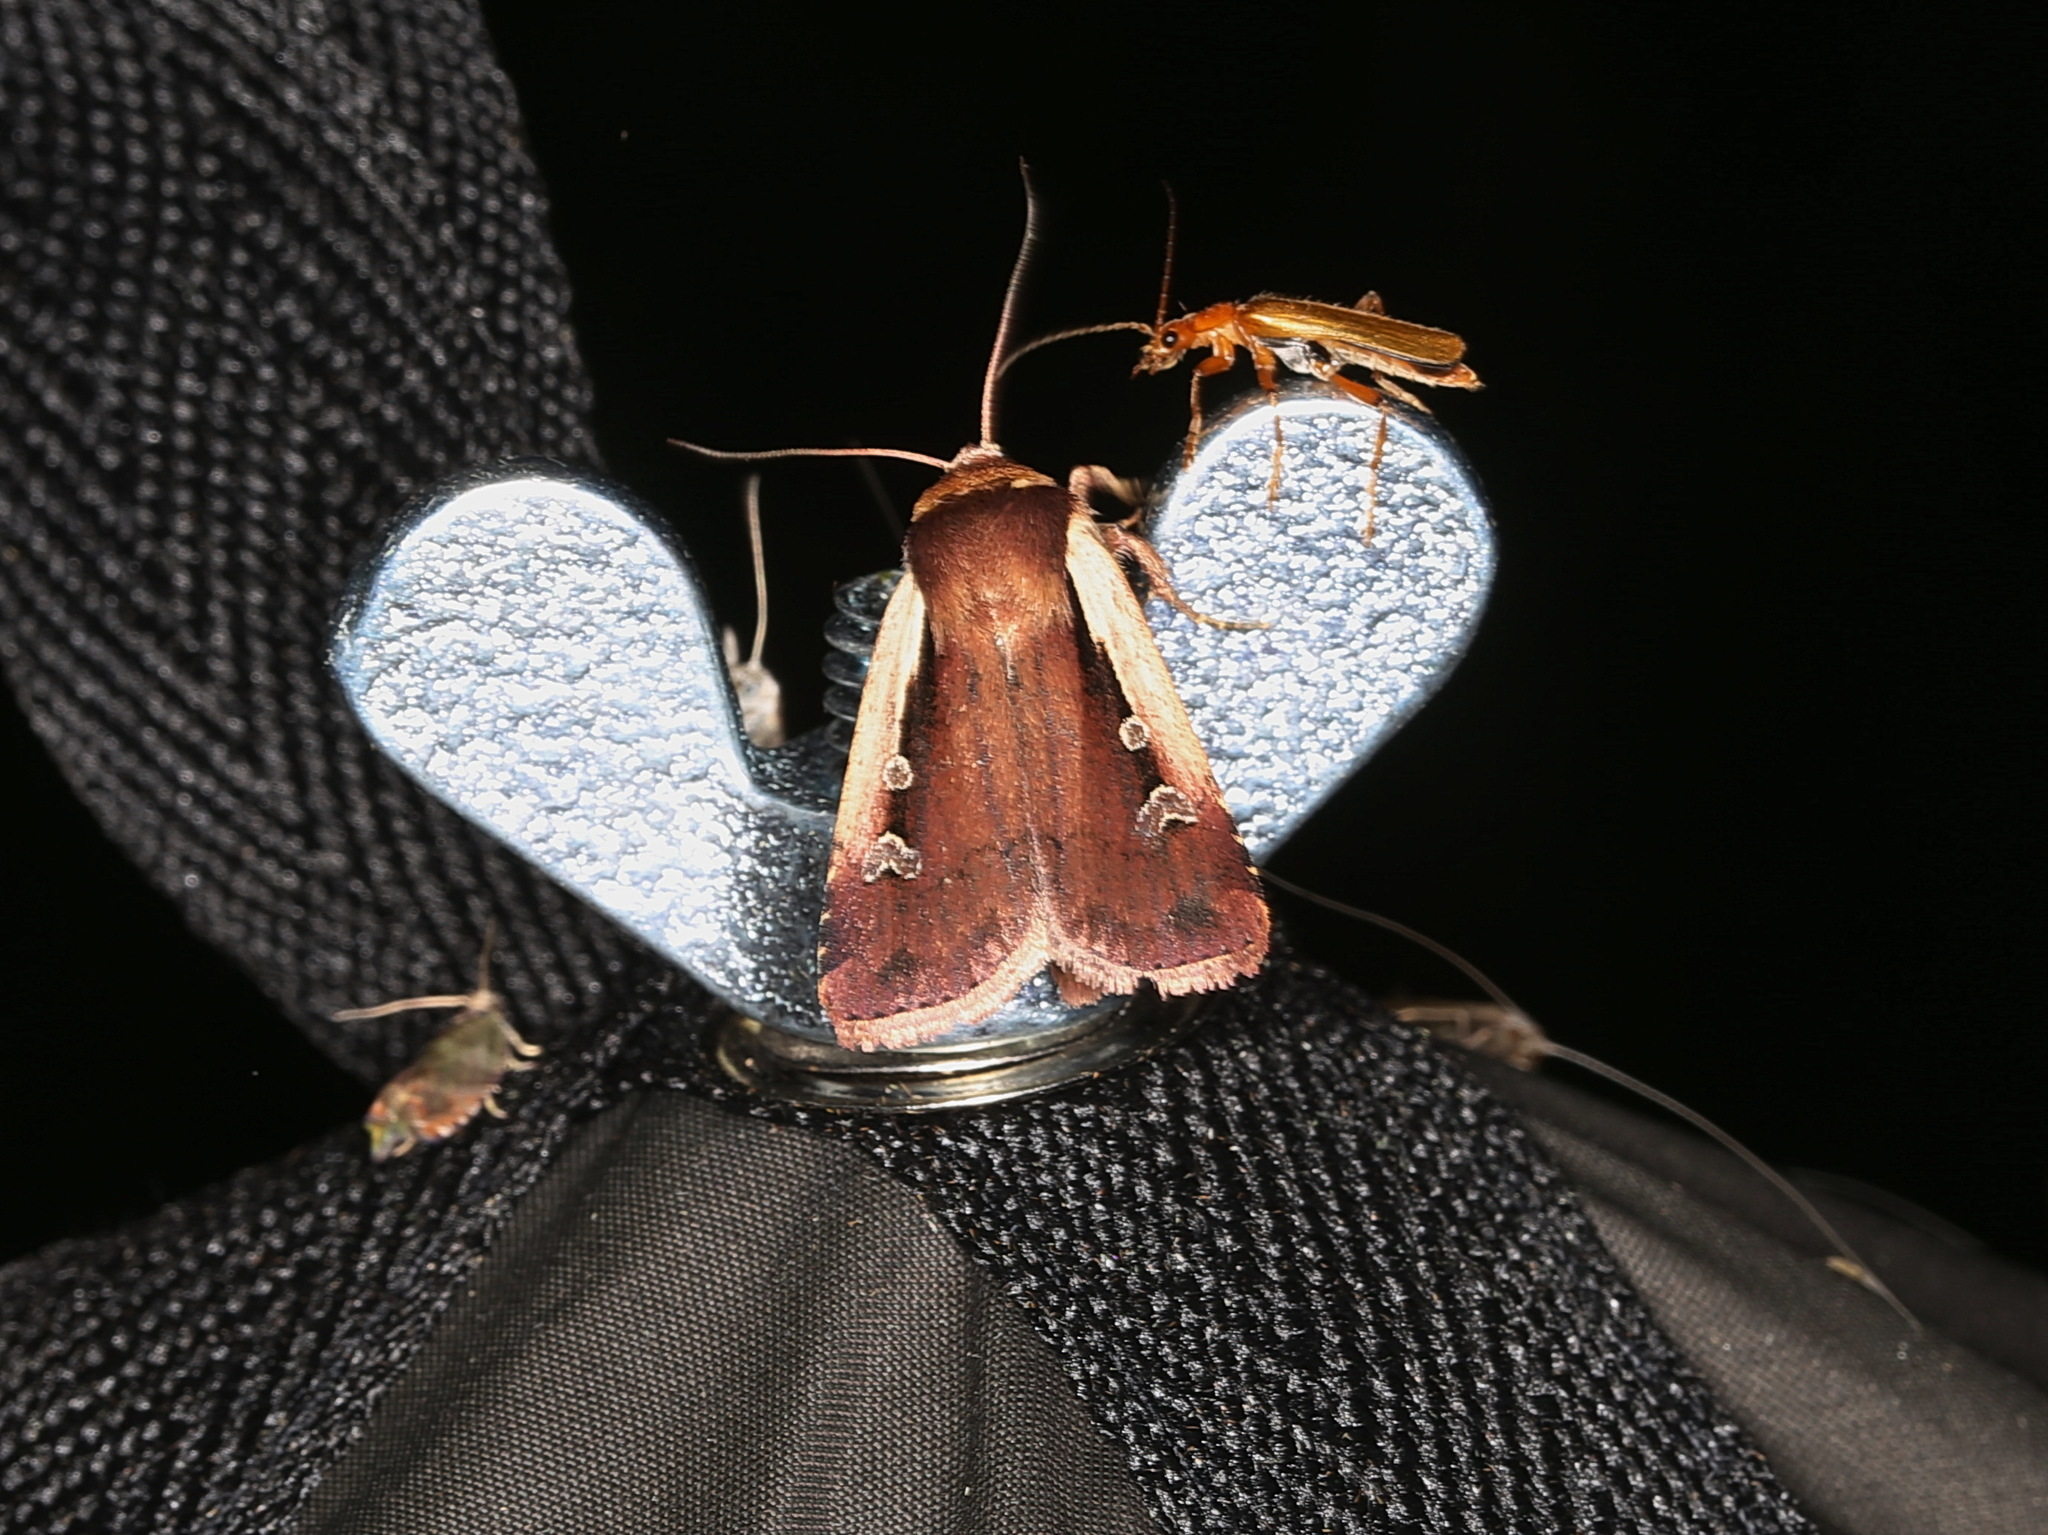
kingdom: Animalia
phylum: Arthropoda
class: Insecta
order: Lepidoptera
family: Noctuidae
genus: Ochropleura
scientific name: Ochropleura plecta
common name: Flame shoulder
